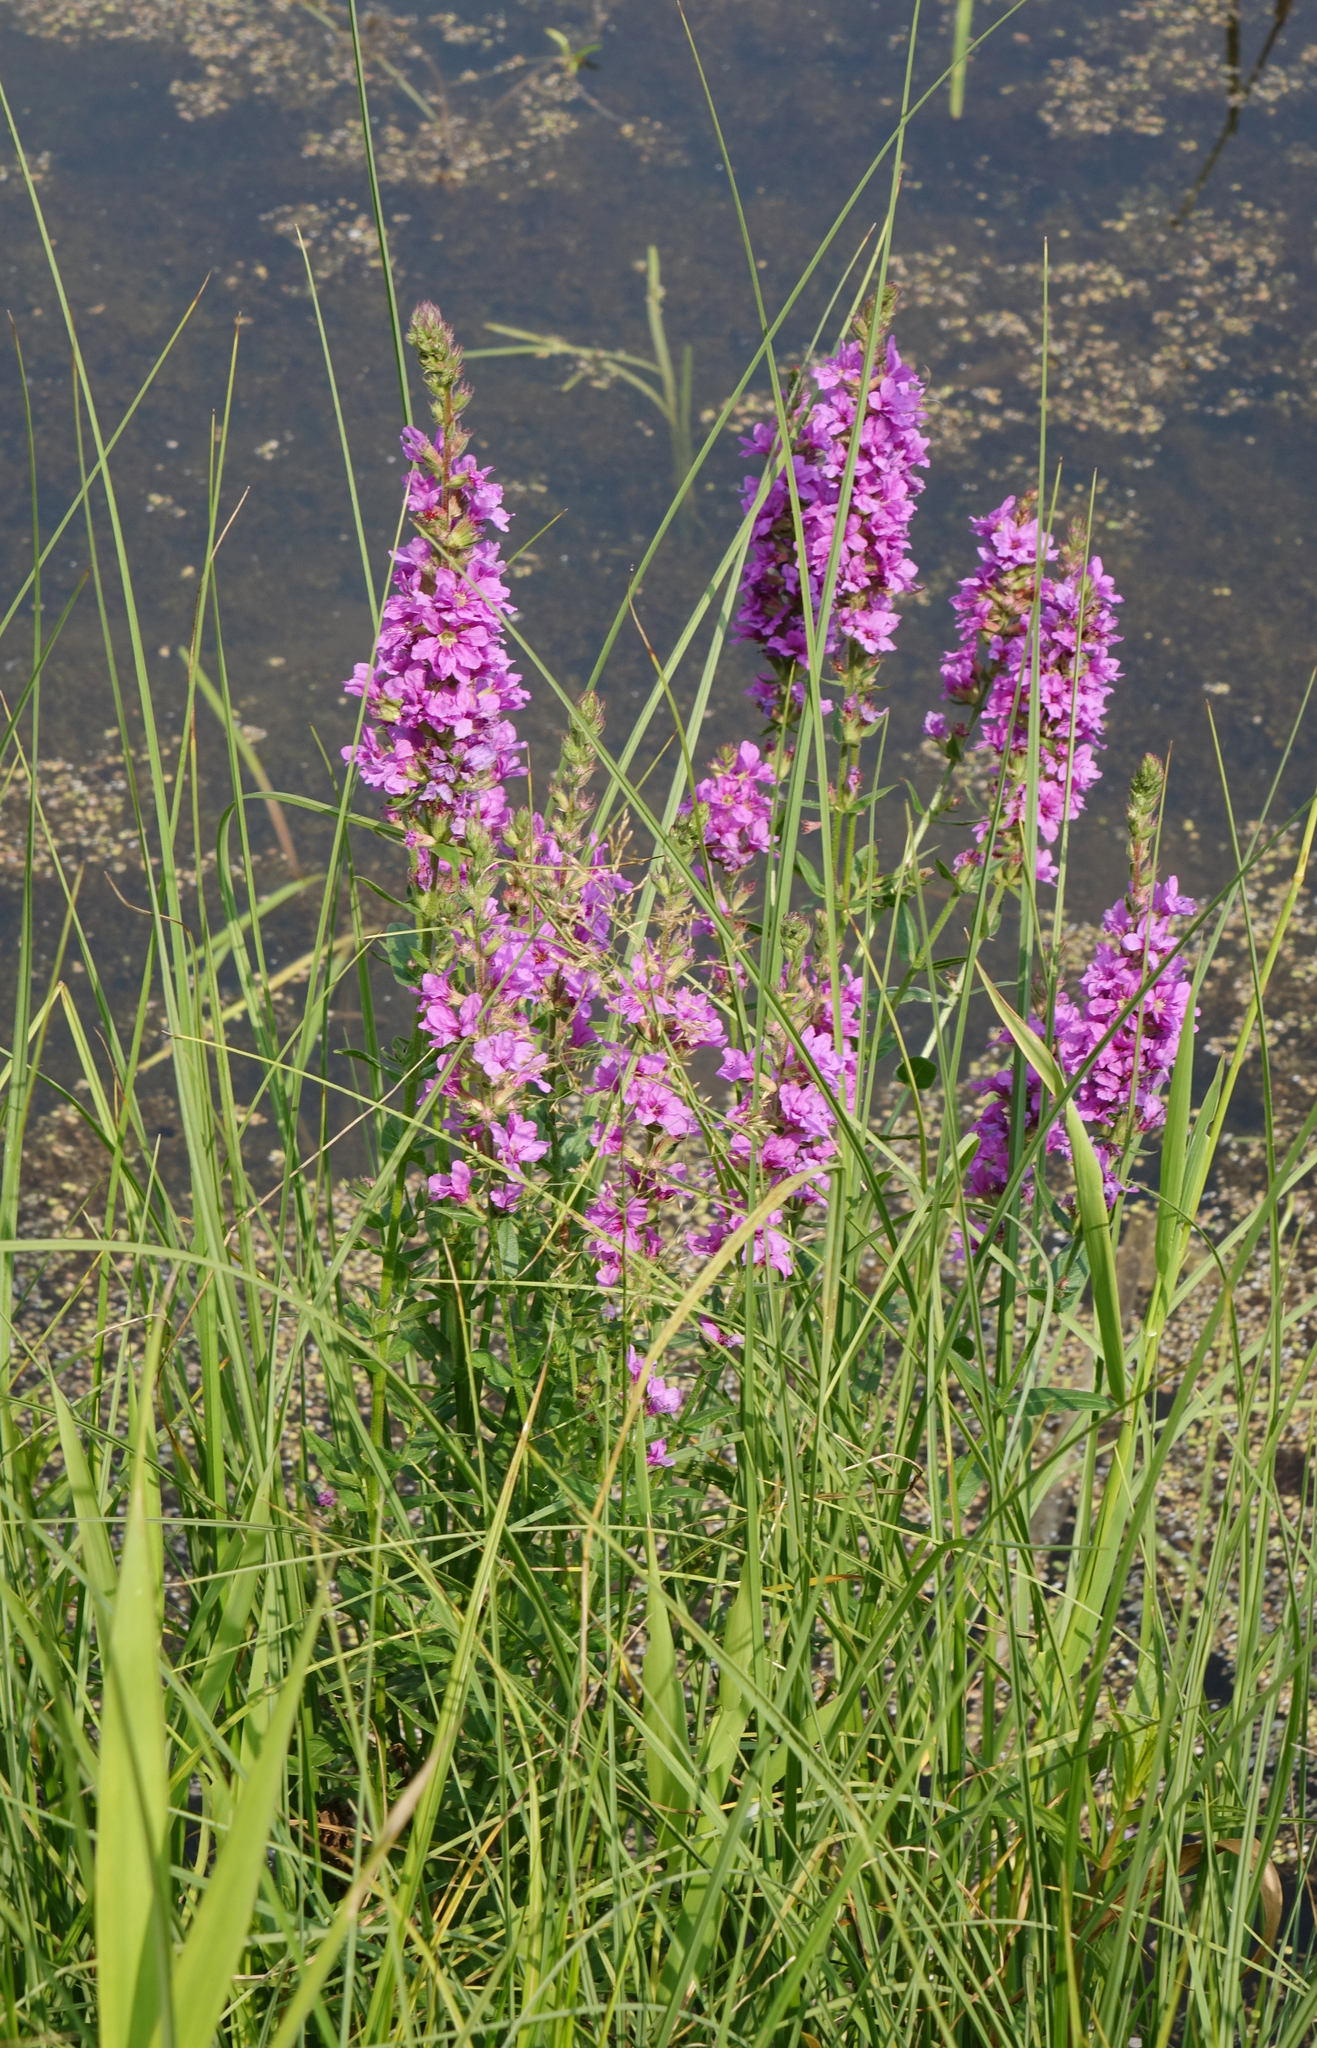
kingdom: Plantae
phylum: Tracheophyta
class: Magnoliopsida
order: Myrtales
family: Lythraceae
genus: Lythrum
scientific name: Lythrum salicaria
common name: Purple loosestrife
